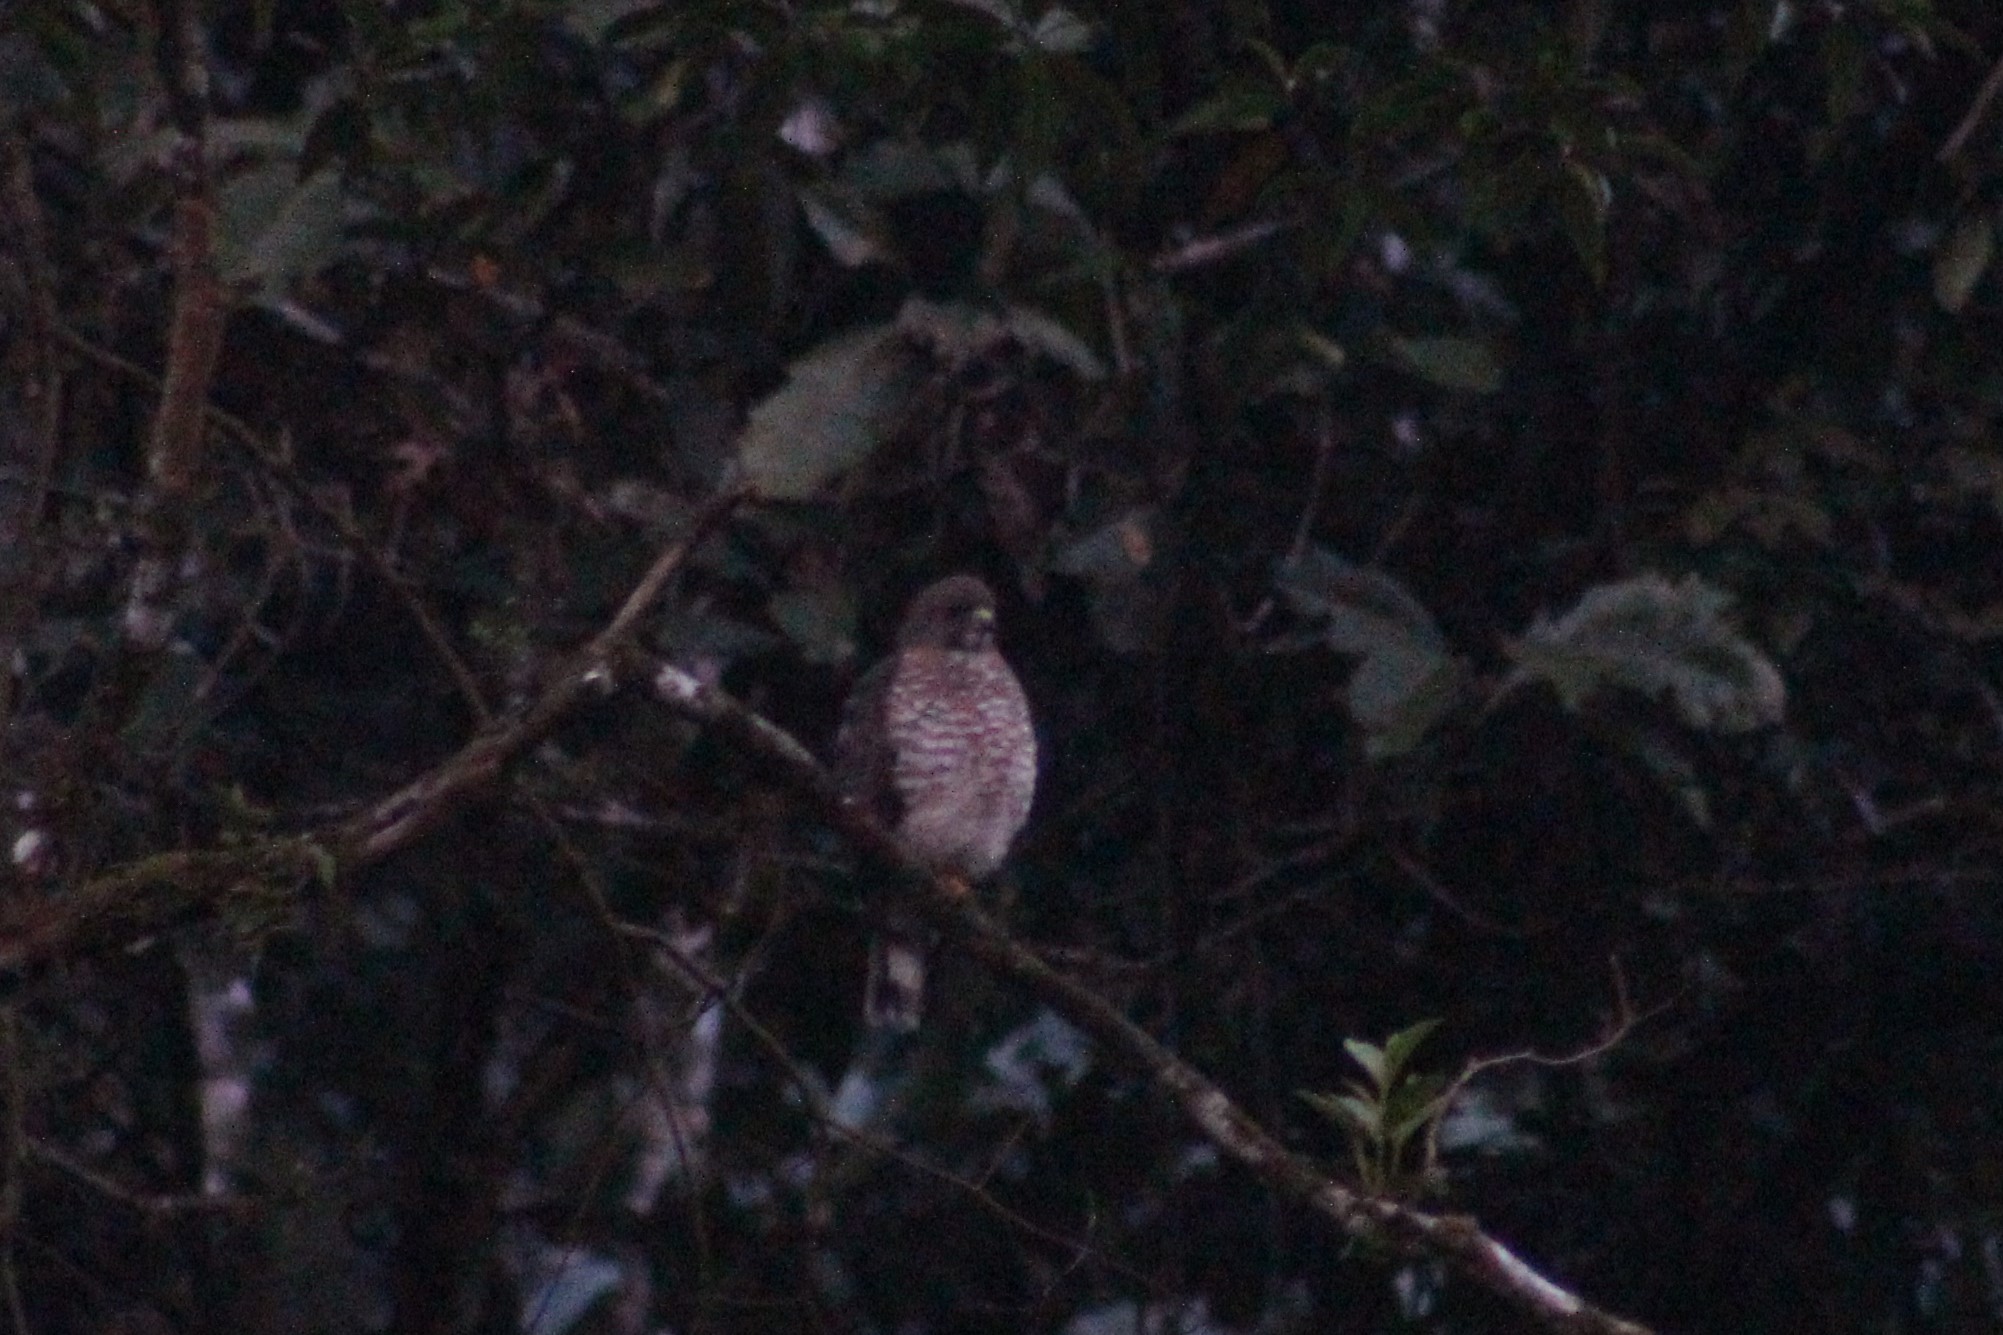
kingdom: Animalia
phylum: Chordata
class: Aves
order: Accipitriformes
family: Accipitridae
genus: Rupornis
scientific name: Rupornis magnirostris
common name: Roadside hawk
